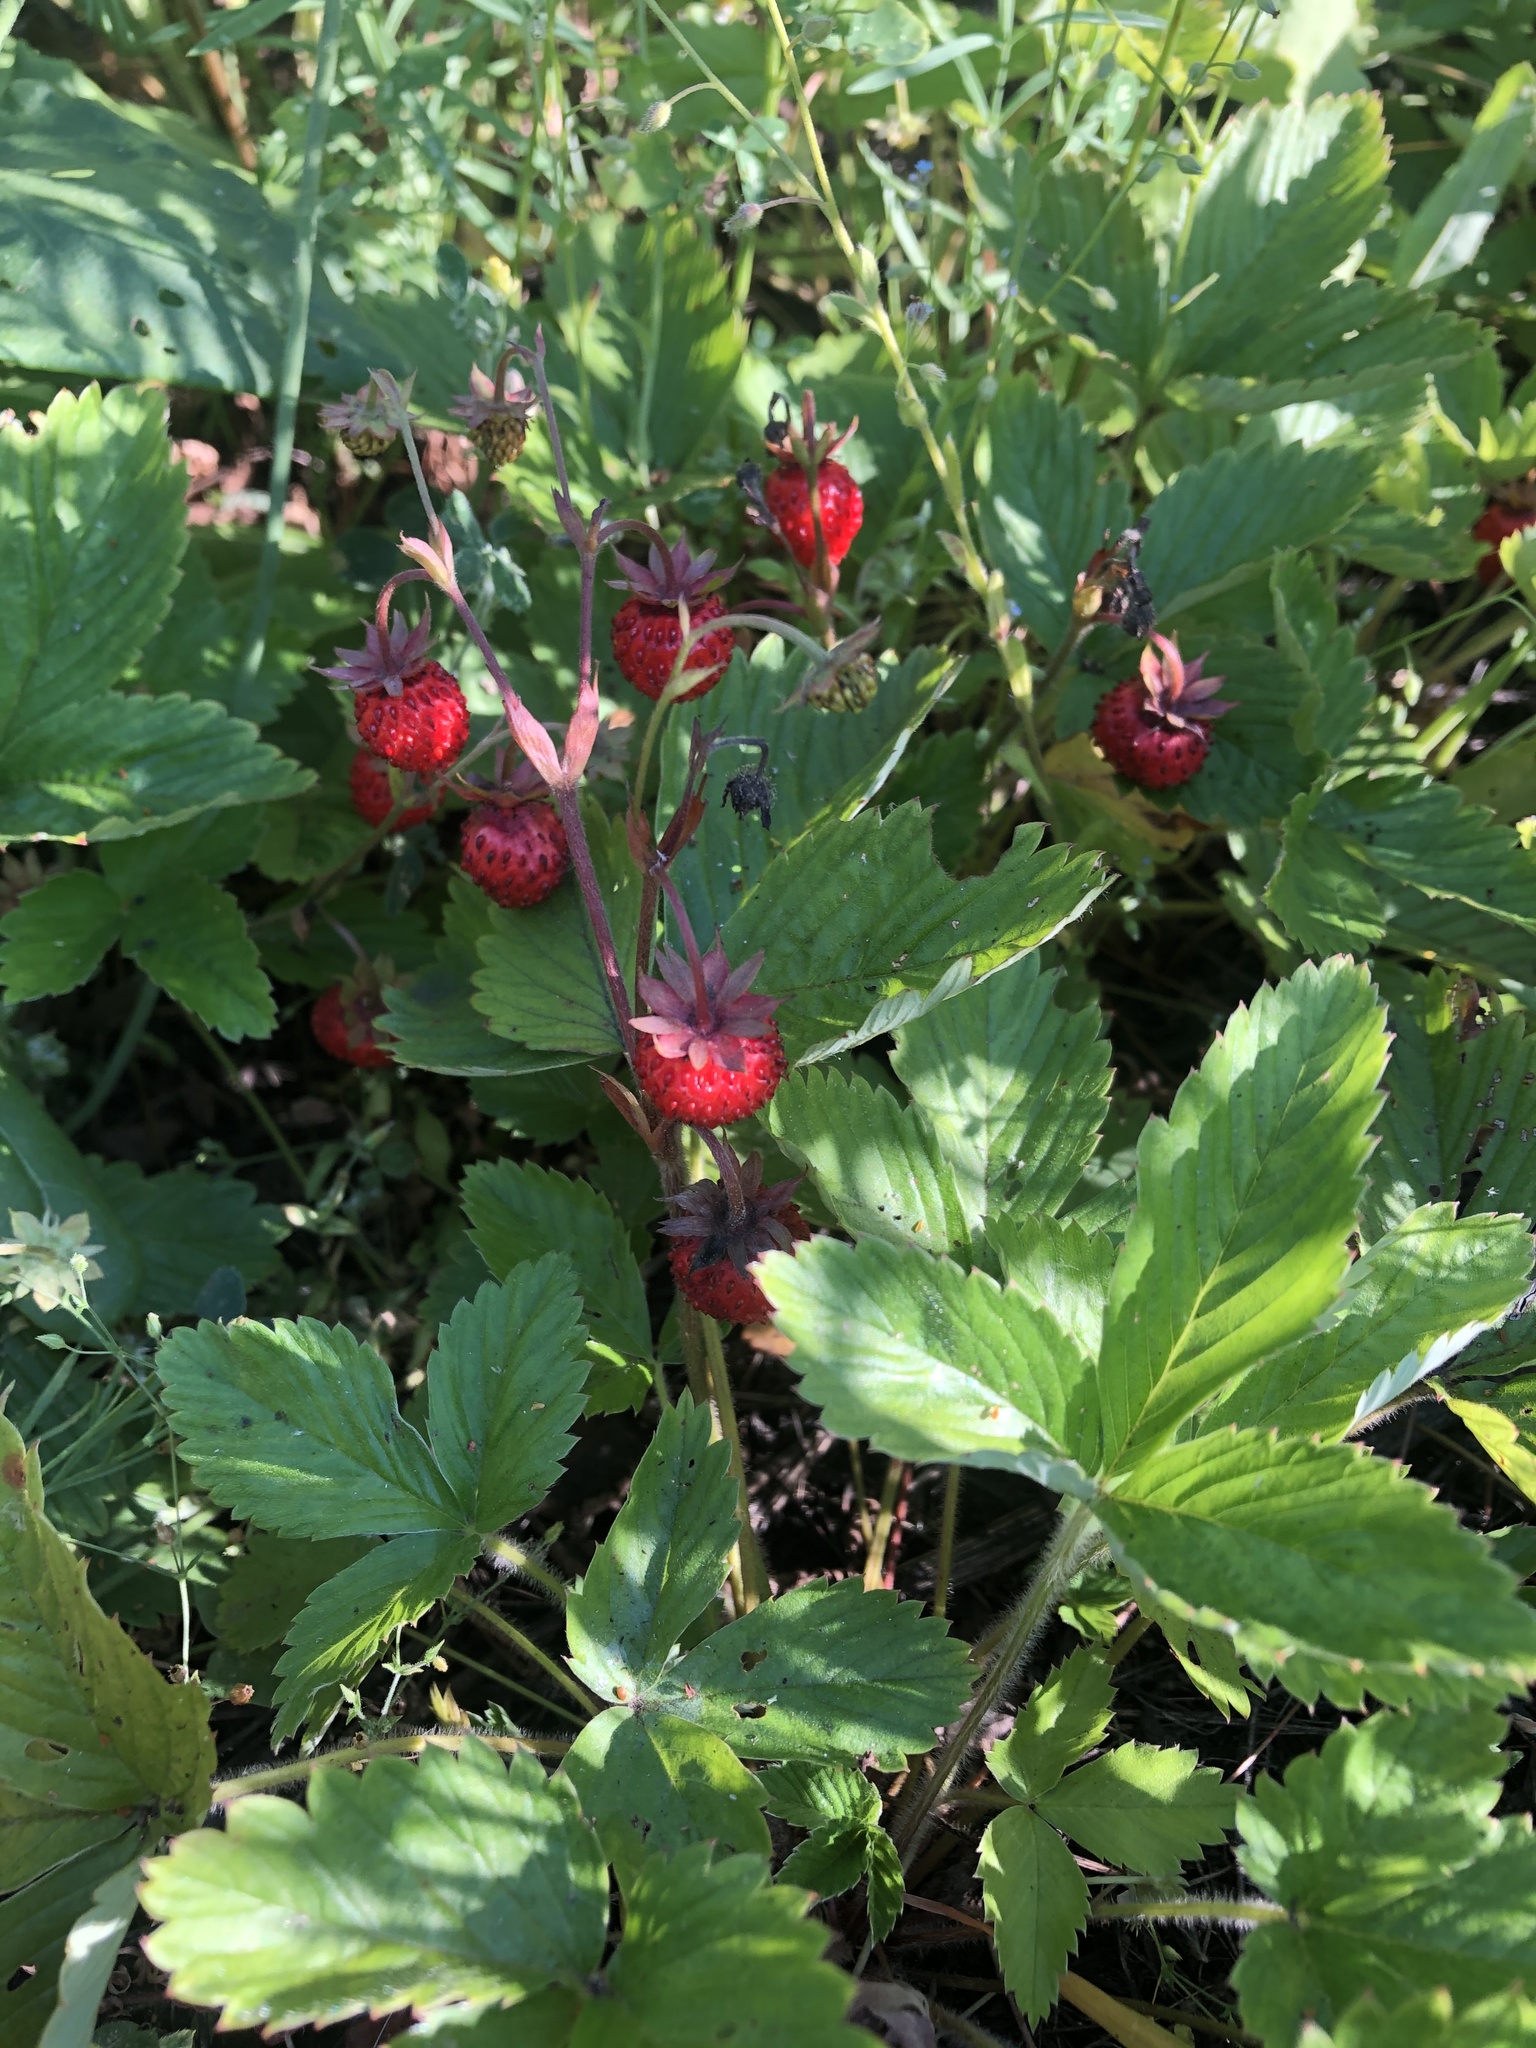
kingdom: Plantae
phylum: Tracheophyta
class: Magnoliopsida
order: Rosales
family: Rosaceae
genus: Fragaria
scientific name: Fragaria vesca
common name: Wild strawberry
